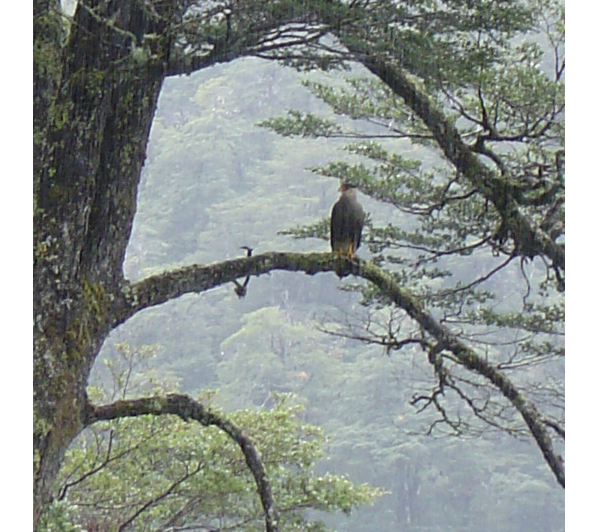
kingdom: Animalia
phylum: Chordata
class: Aves
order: Falconiformes
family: Falconidae
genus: Caracara
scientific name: Caracara plancus
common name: Southern caracara
